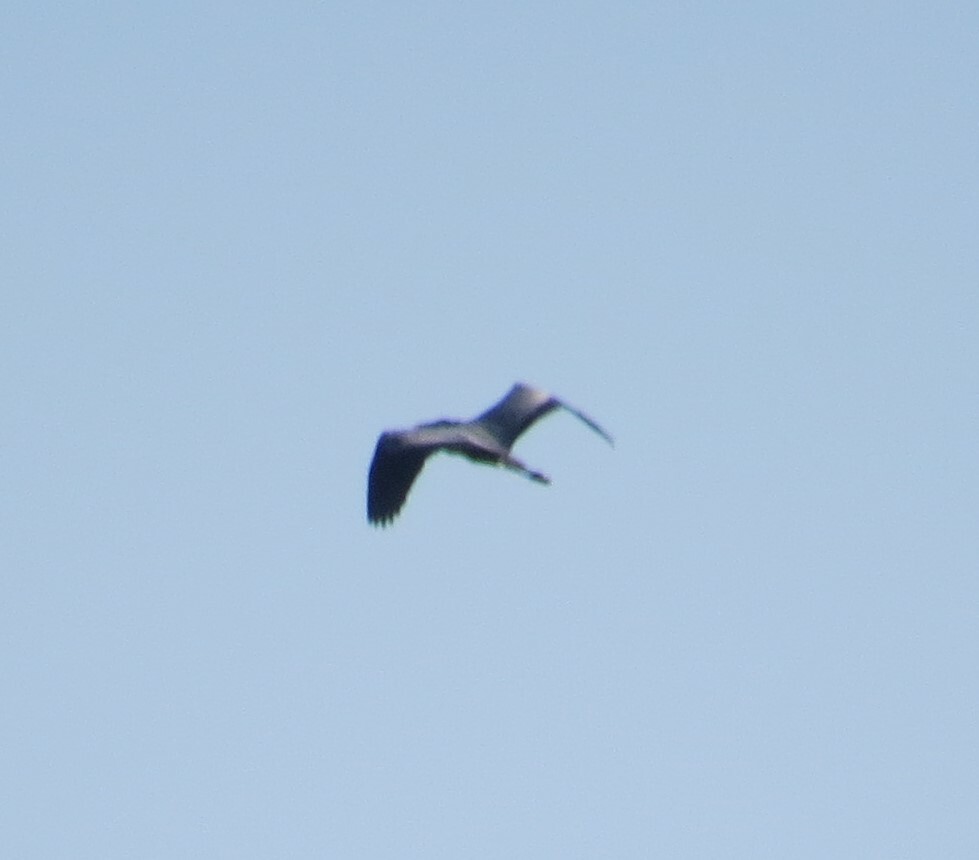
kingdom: Animalia
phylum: Chordata
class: Aves
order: Pelecaniformes
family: Ardeidae
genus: Ardea
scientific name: Ardea herodias
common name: Great blue heron
